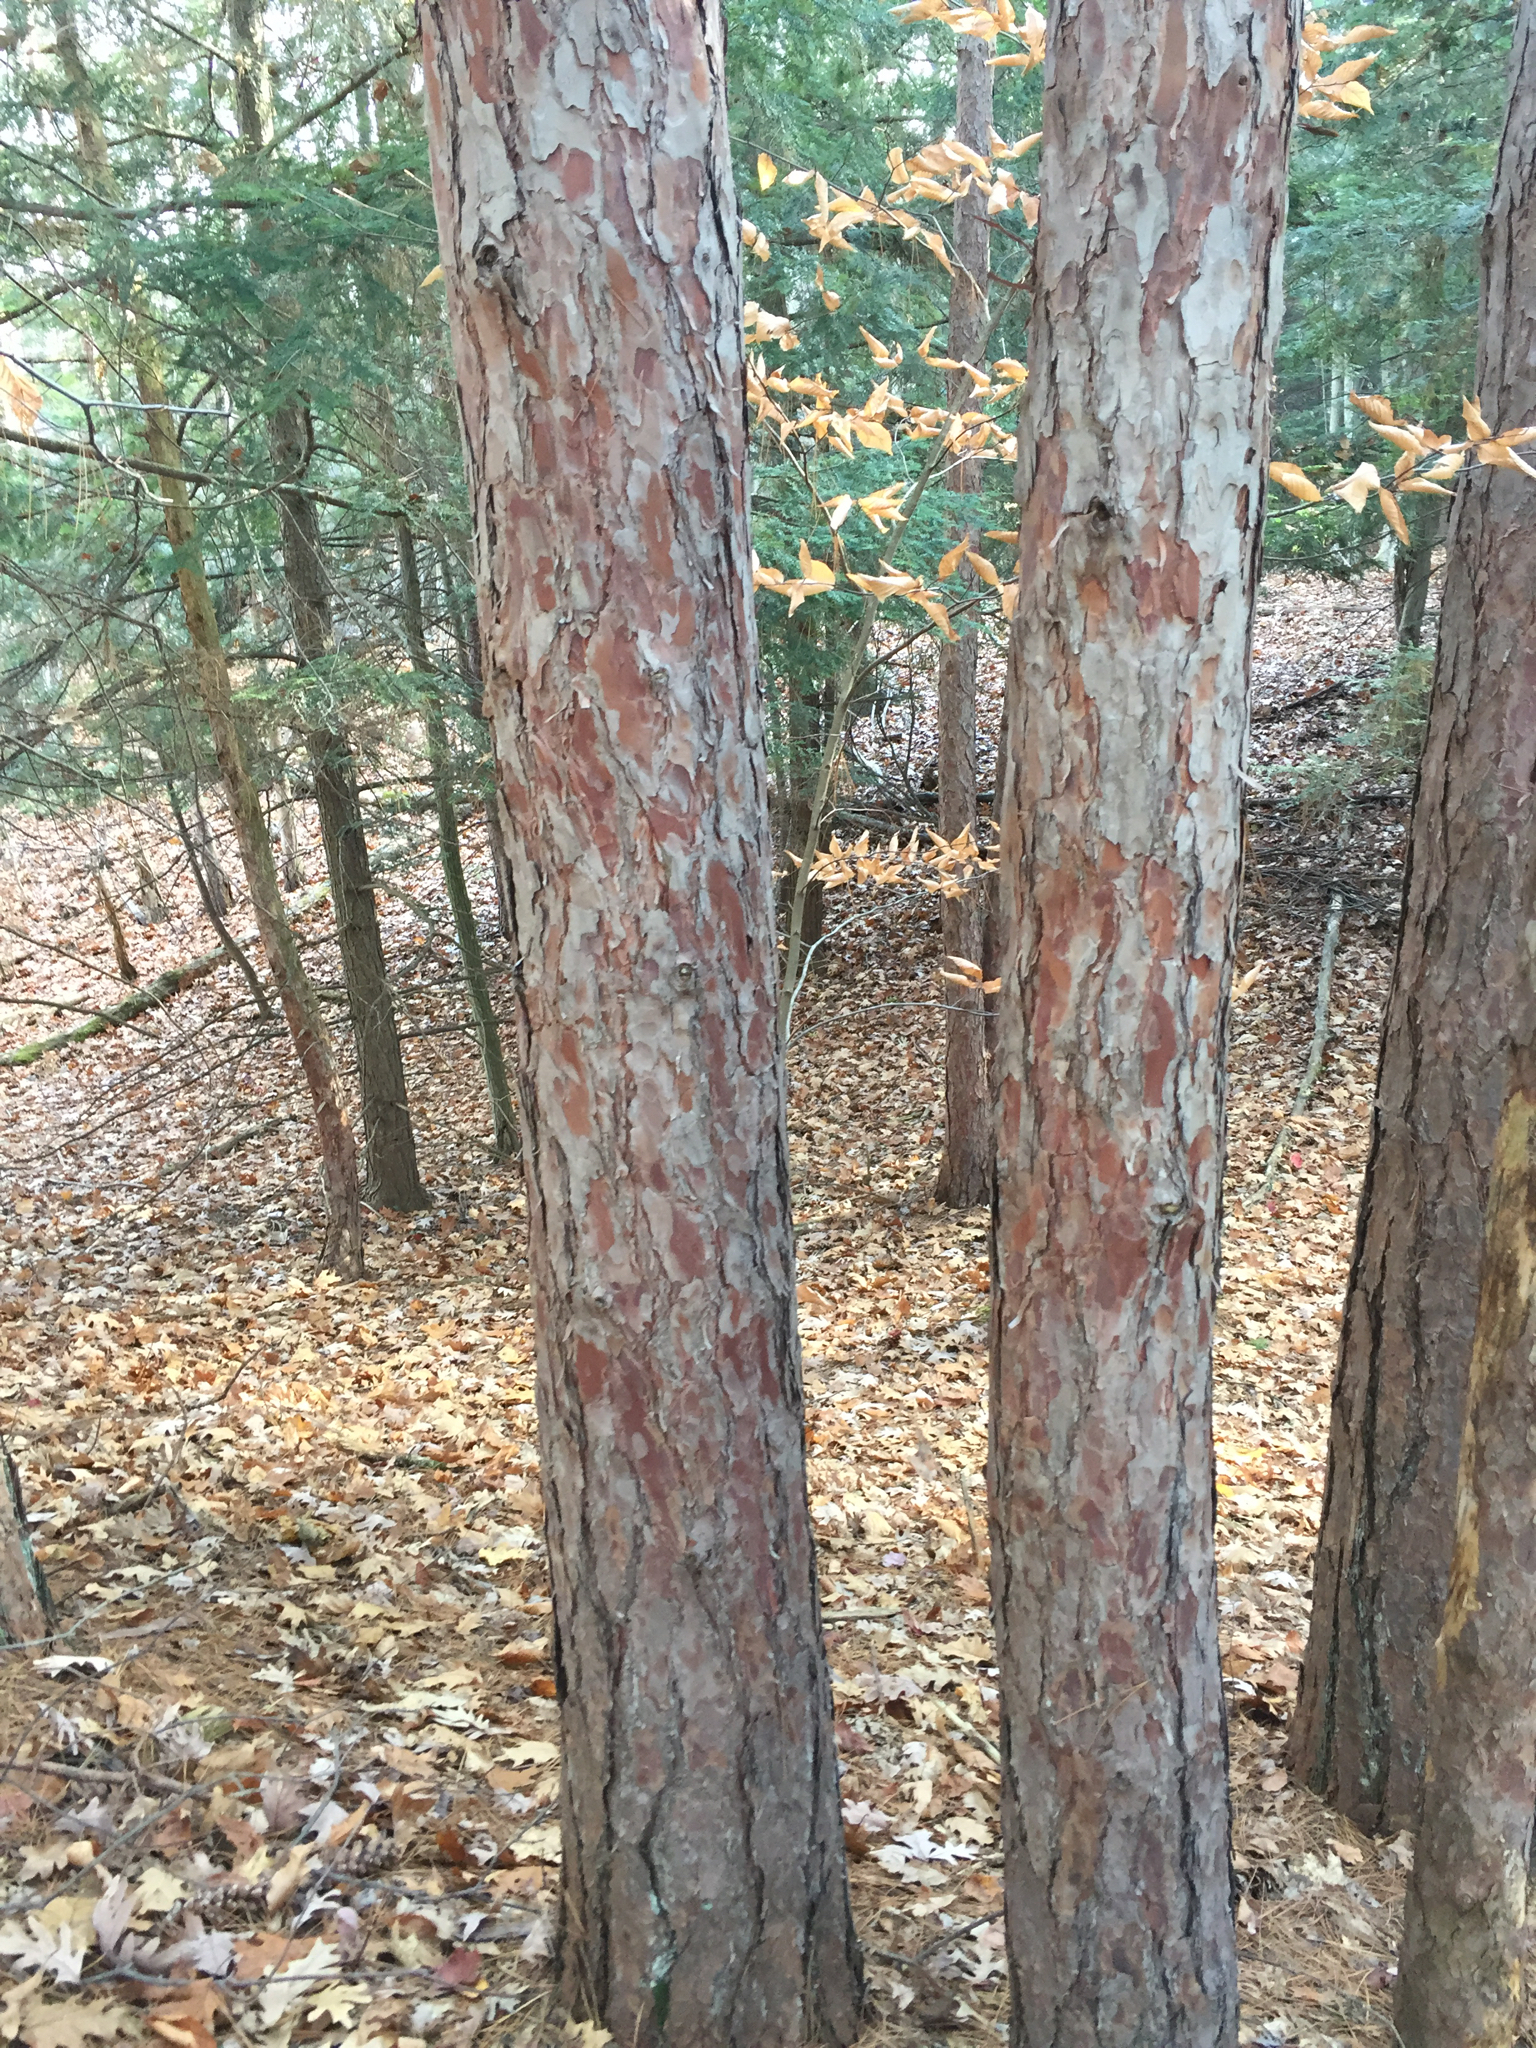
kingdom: Plantae
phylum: Tracheophyta
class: Pinopsida
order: Pinales
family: Pinaceae
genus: Pinus
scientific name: Pinus resinosa
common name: Norway pine
